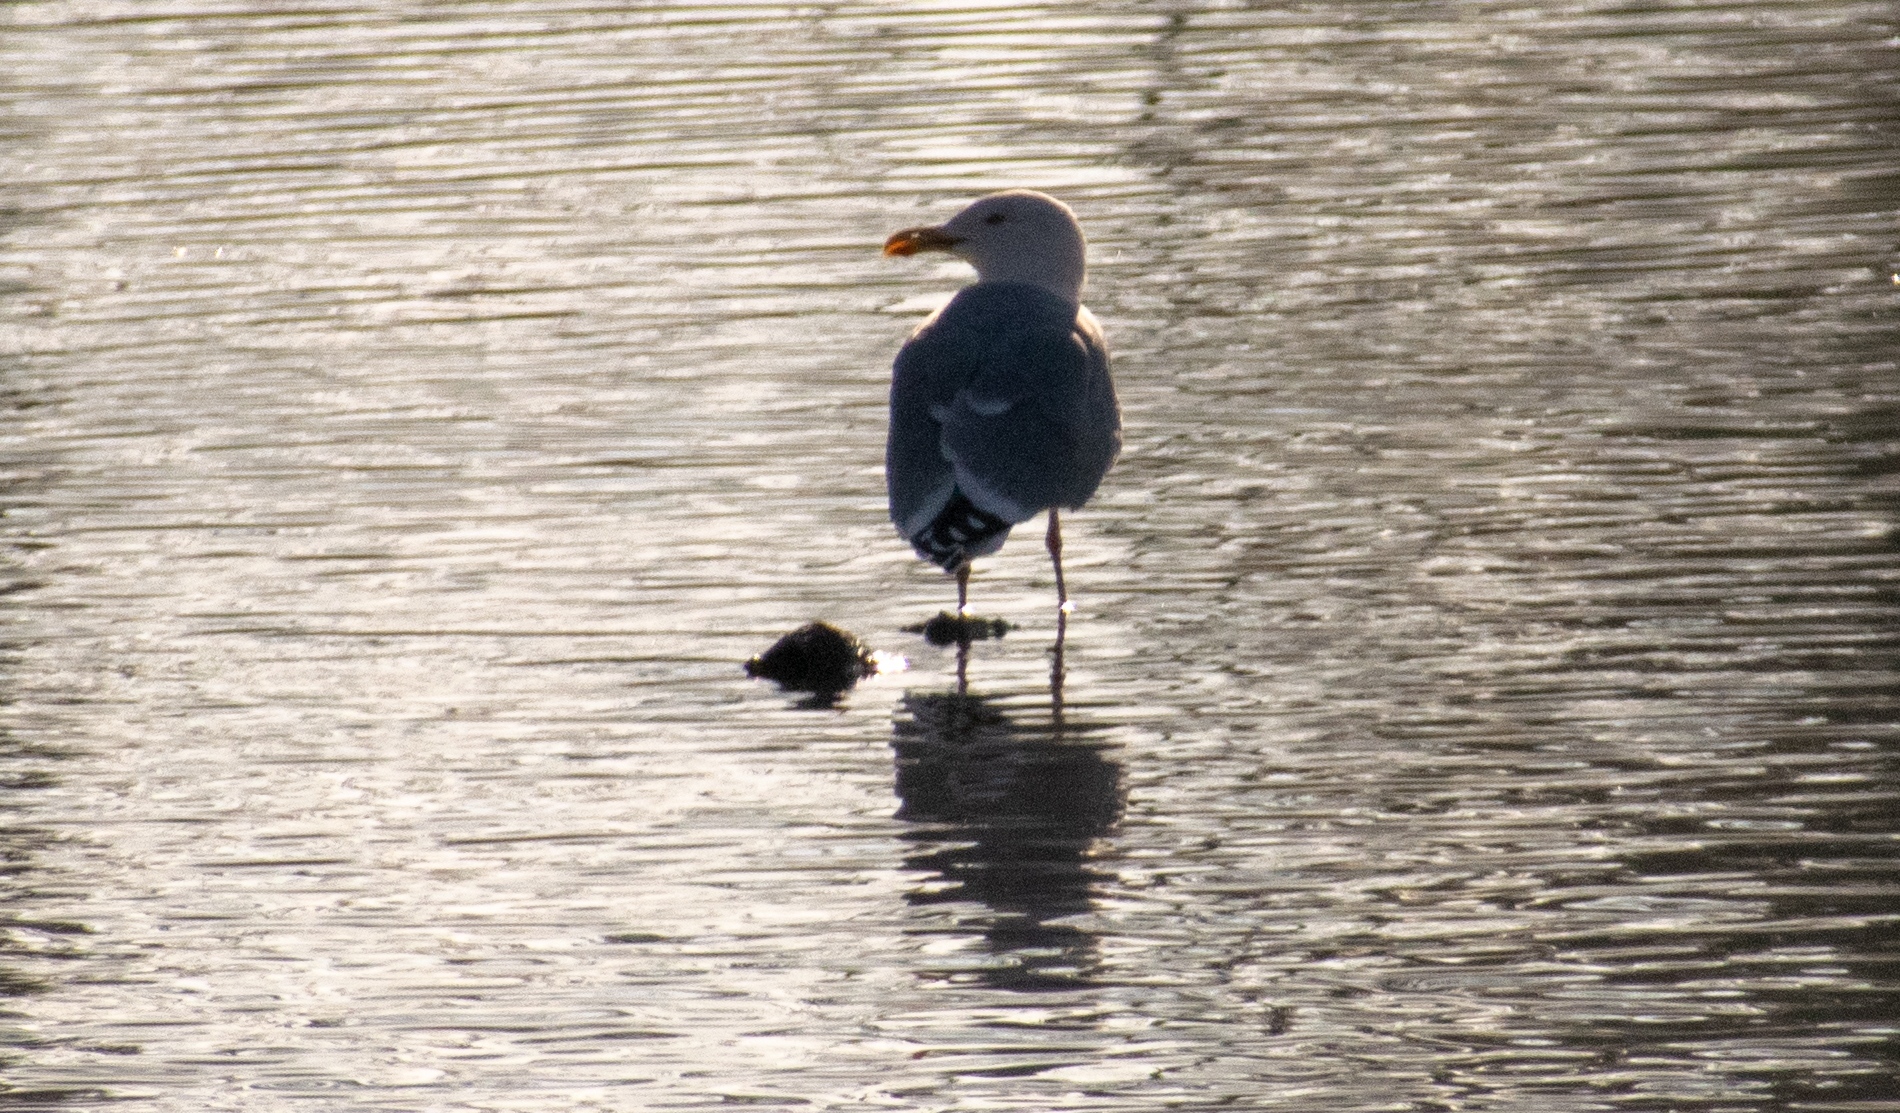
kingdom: Animalia
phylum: Chordata
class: Aves
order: Charadriiformes
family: Laridae
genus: Larus
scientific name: Larus michahellis
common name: Yellow-legged gull
